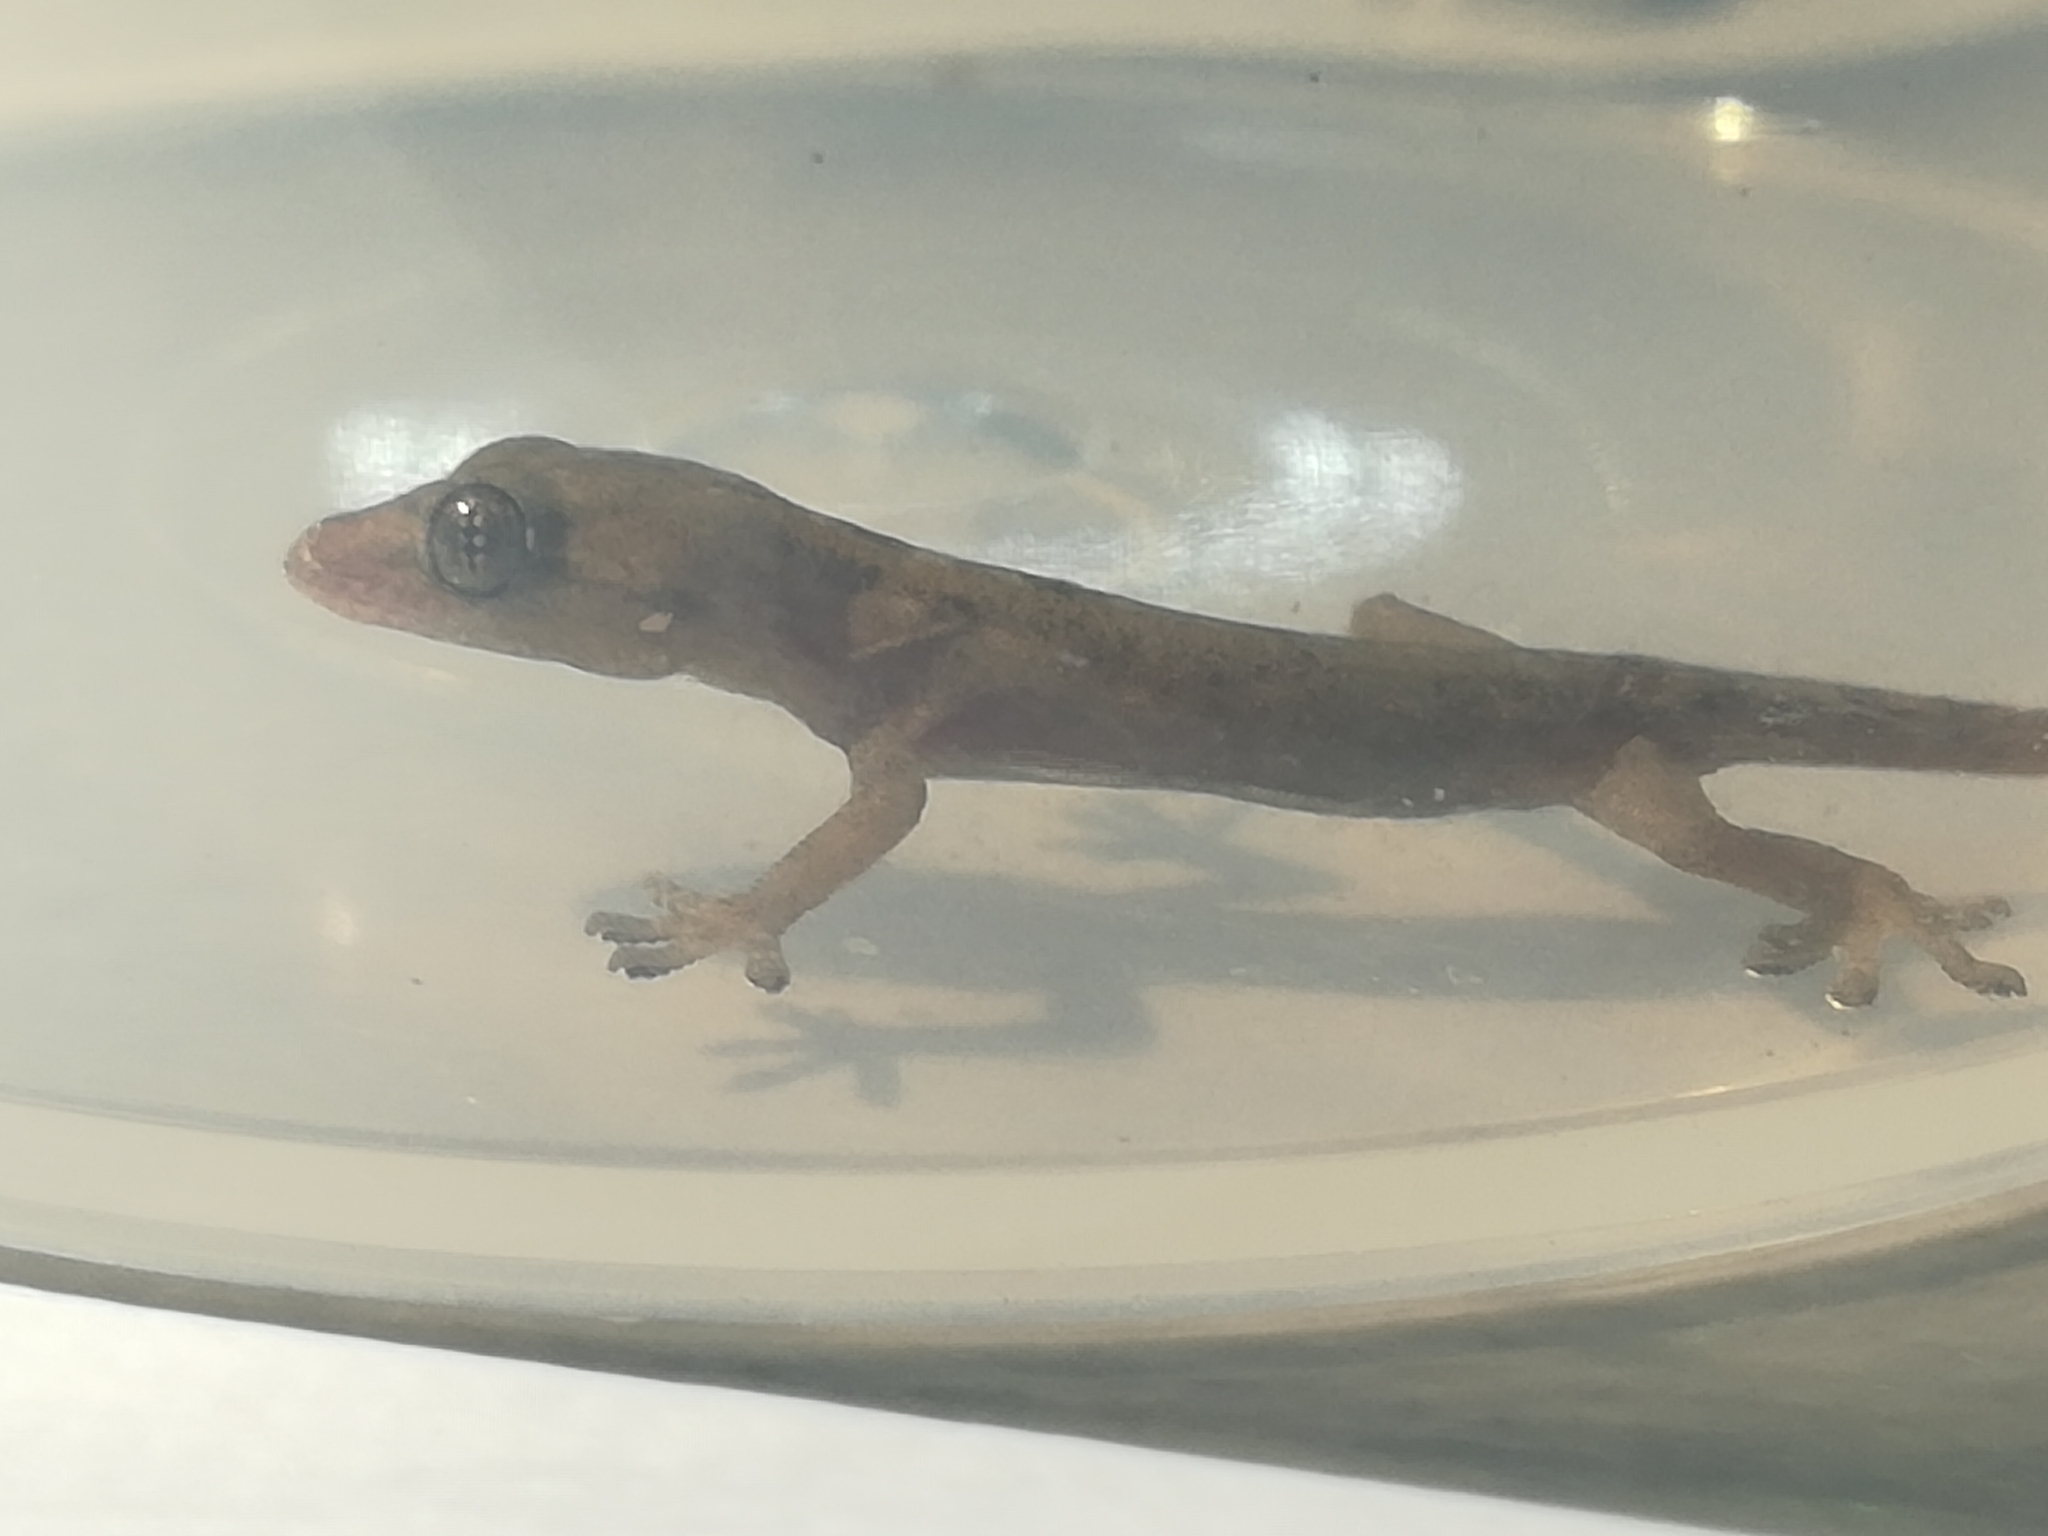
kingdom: Animalia
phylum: Chordata
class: Squamata
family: Gekkonidae
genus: Hemidactylus
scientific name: Hemidactylus frenatus
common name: Common house gecko
